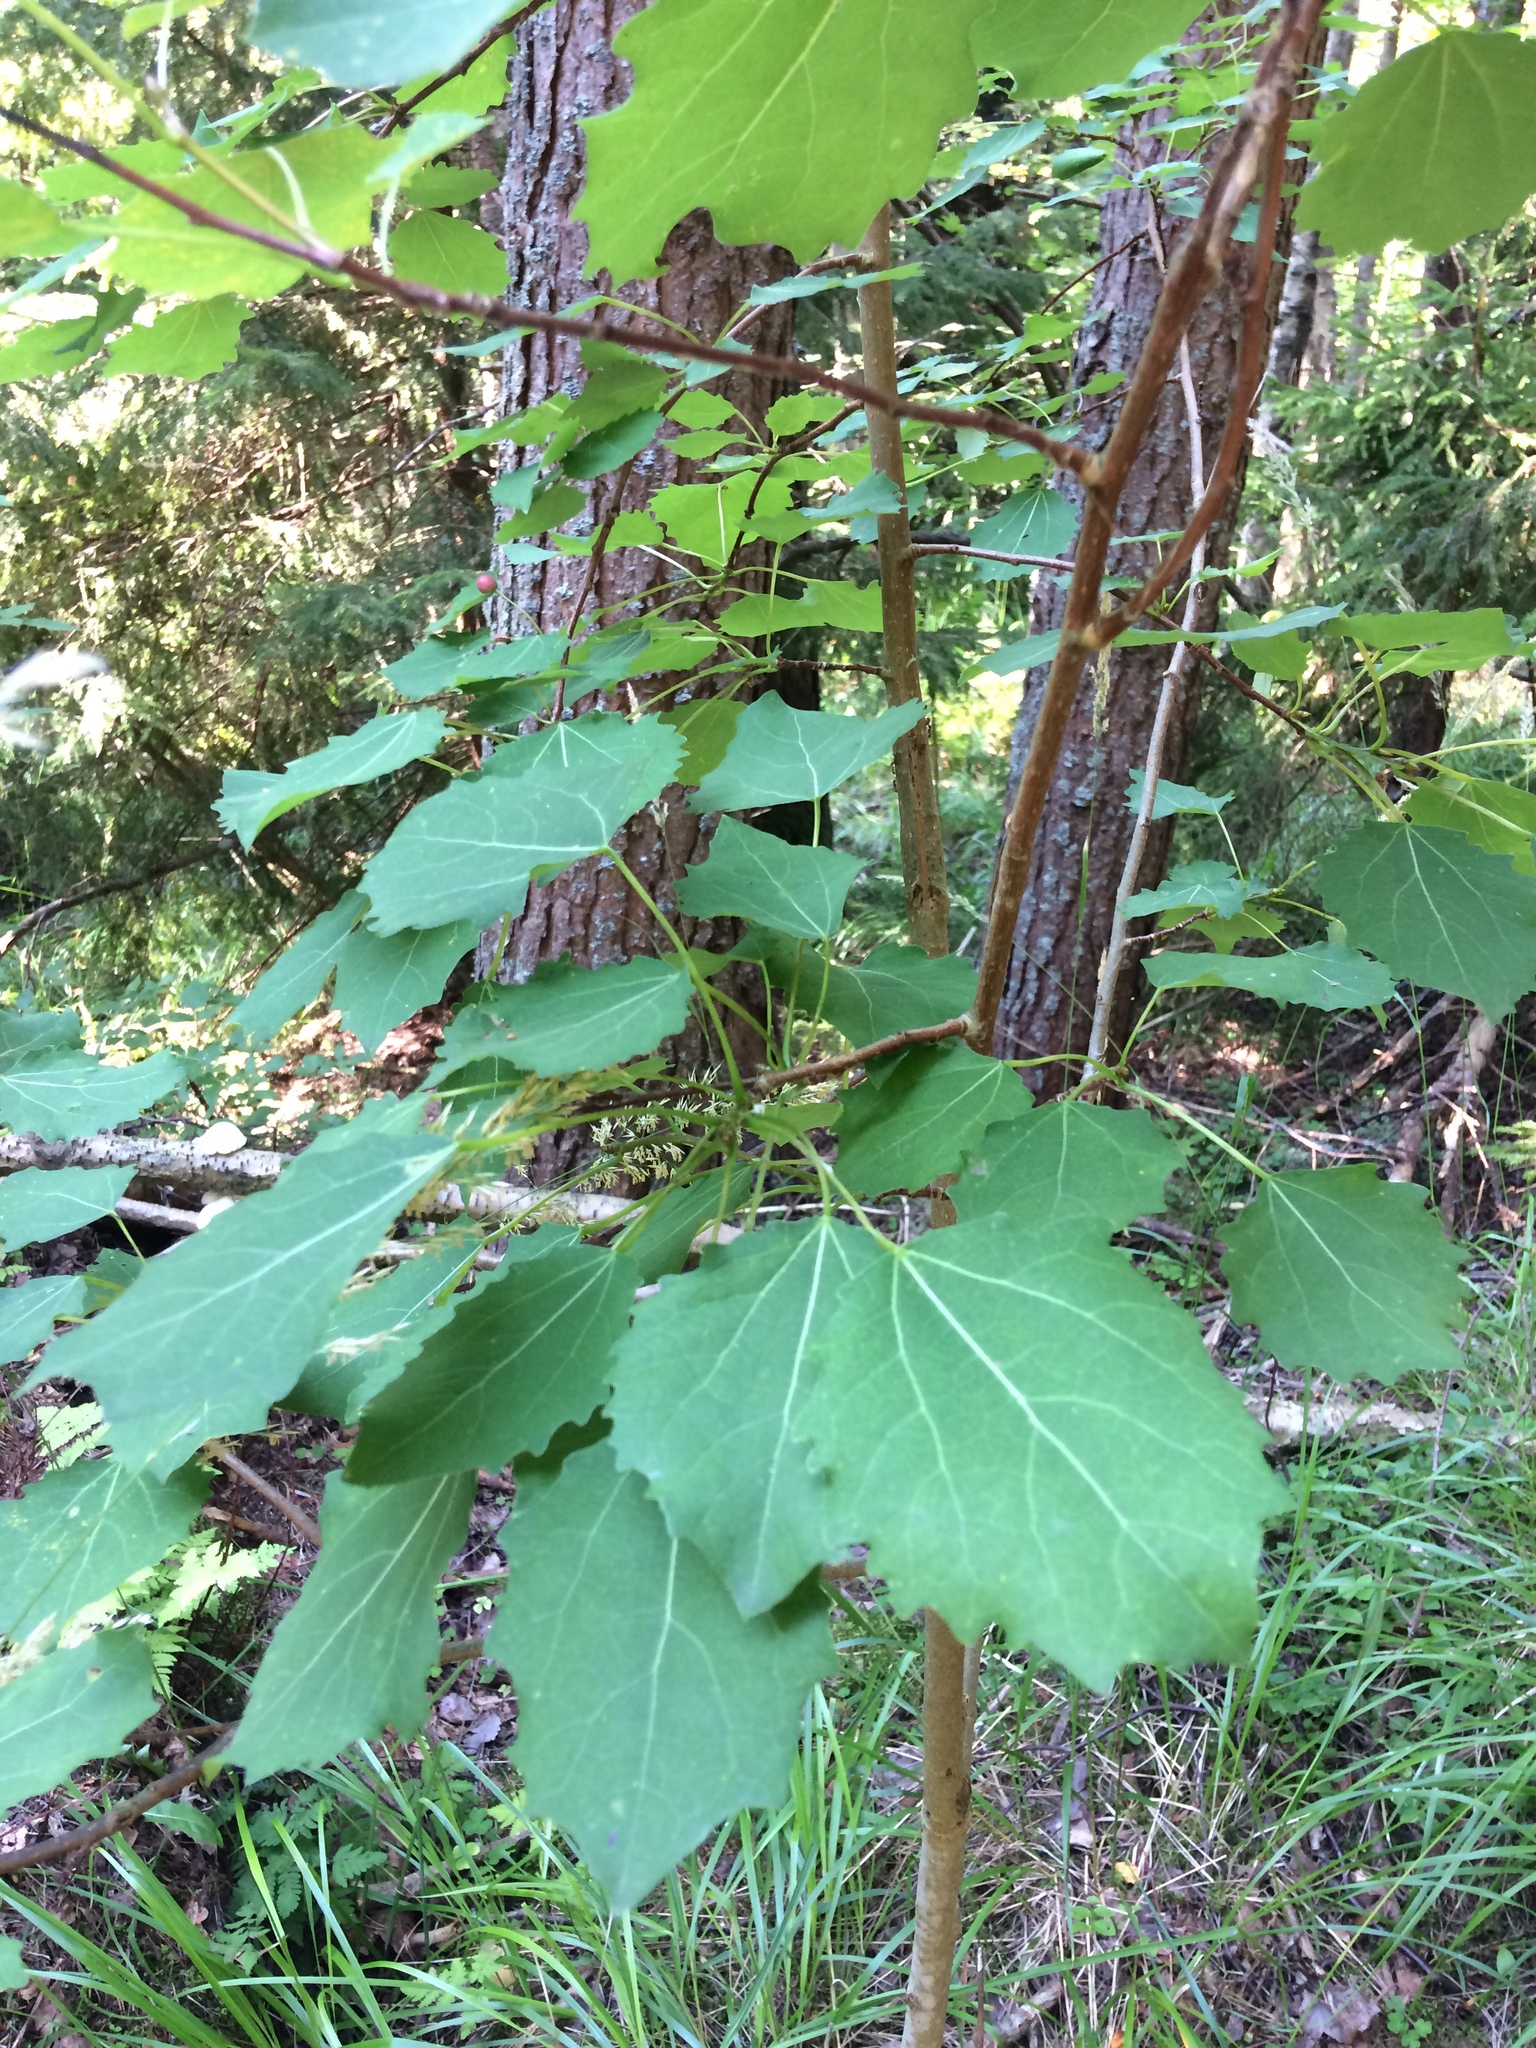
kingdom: Plantae
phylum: Tracheophyta
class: Magnoliopsida
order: Malpighiales
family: Salicaceae
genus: Populus
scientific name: Populus tremula
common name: European aspen
